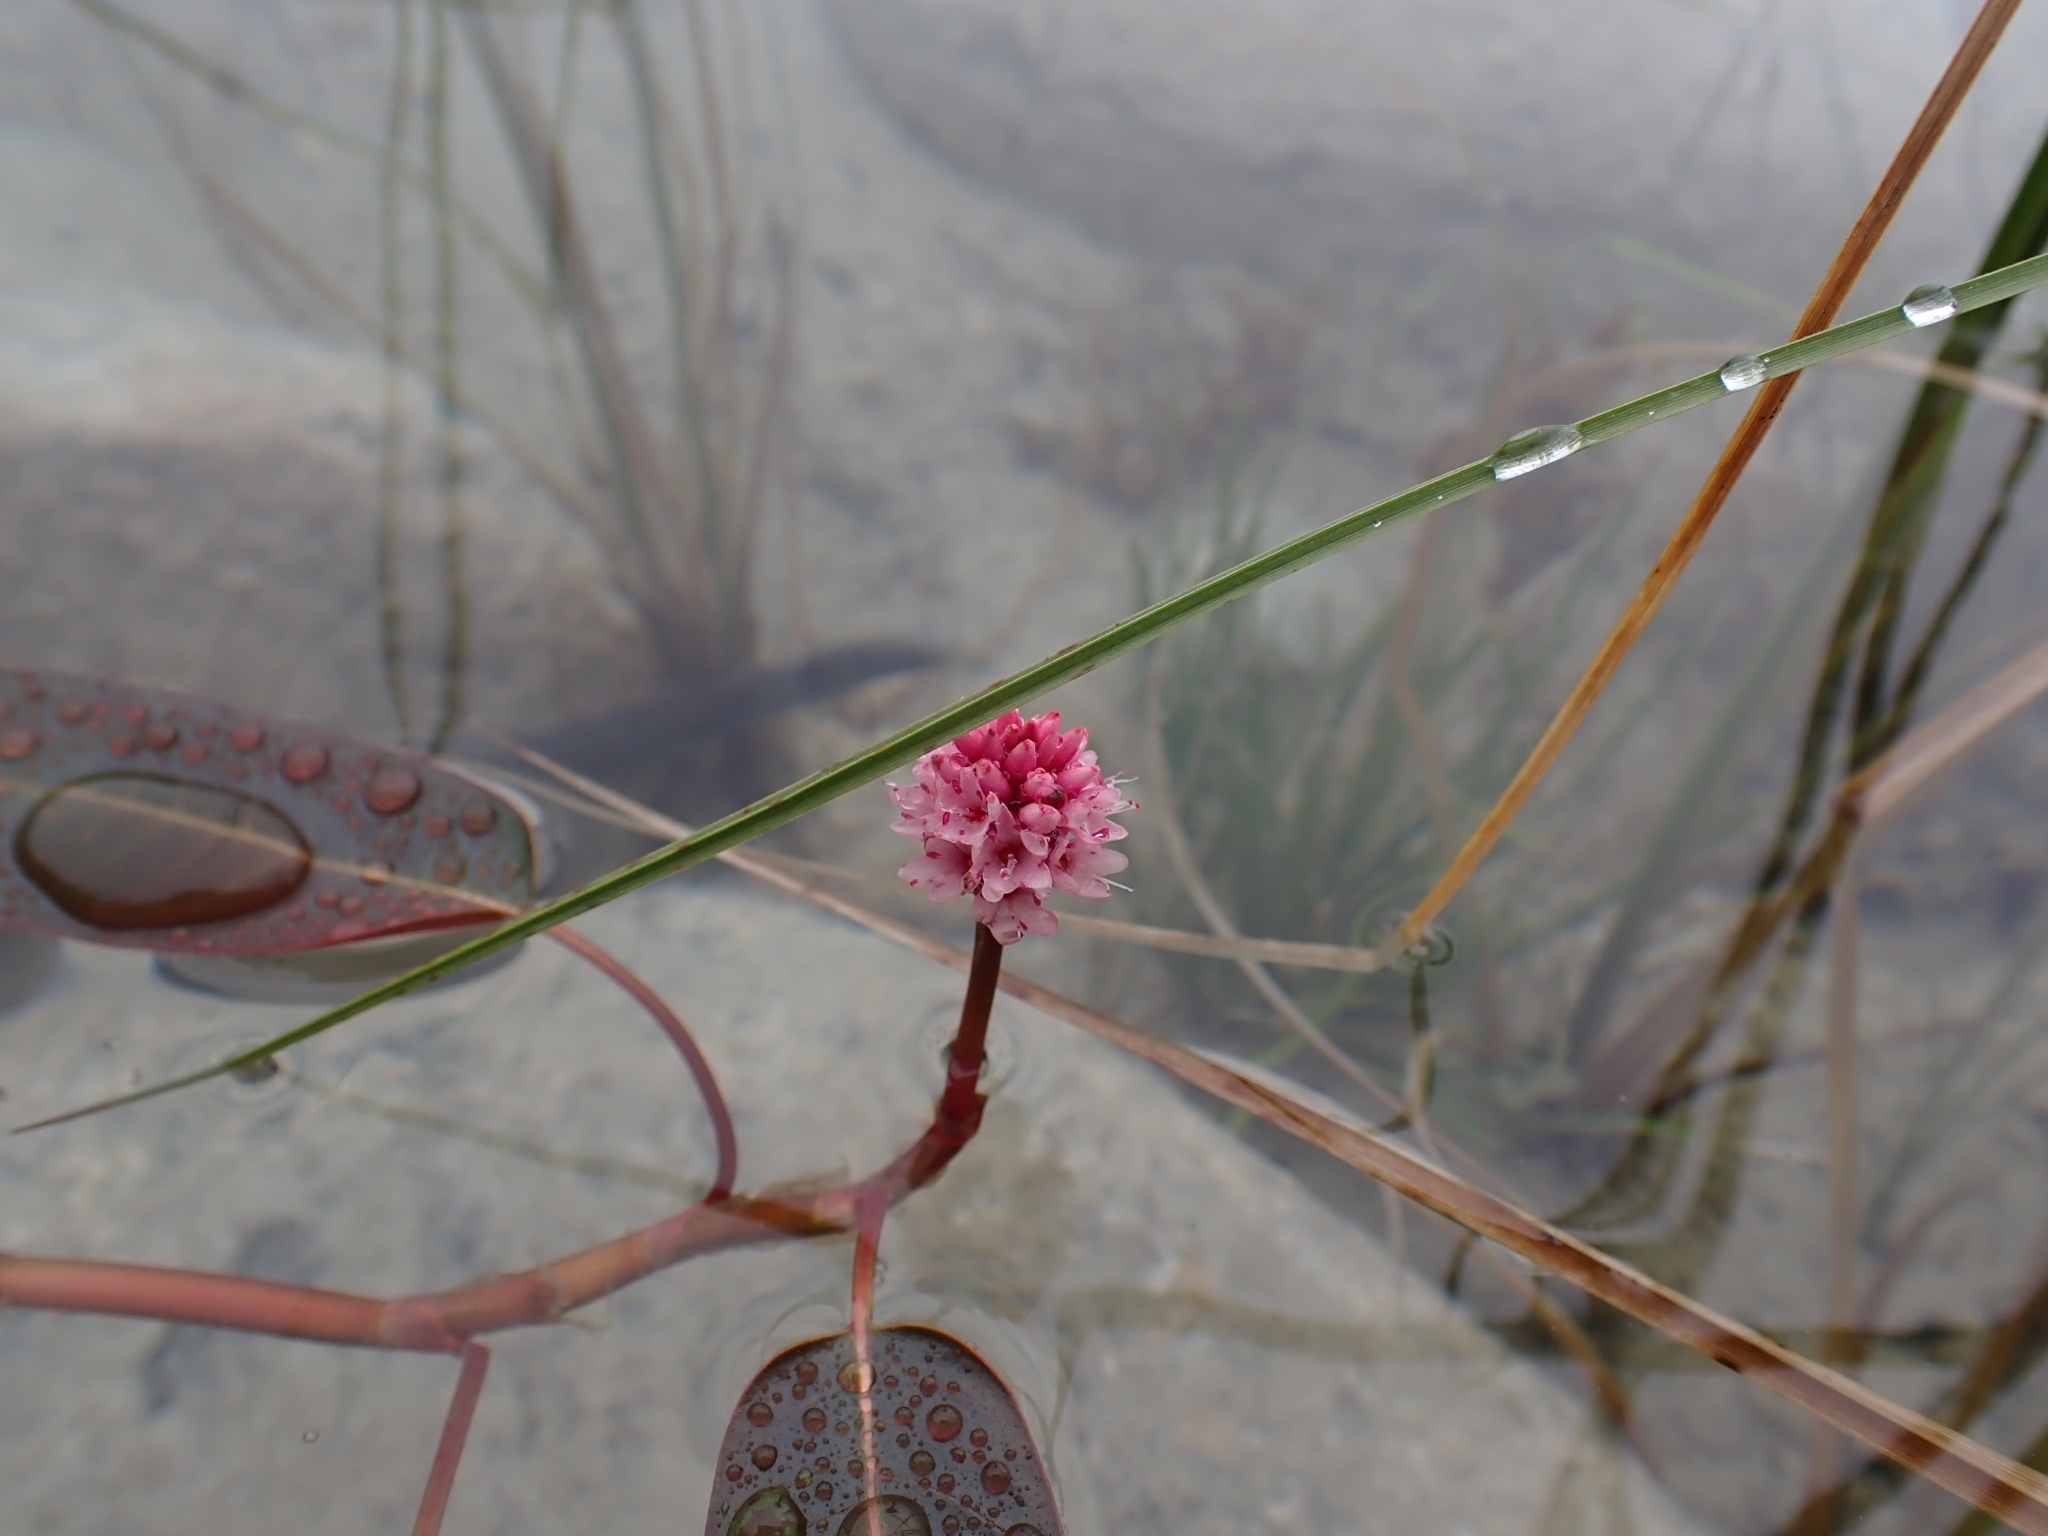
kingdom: Plantae
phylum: Tracheophyta
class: Magnoliopsida
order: Caryophyllales
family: Polygonaceae
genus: Persicaria
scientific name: Persicaria amphibia
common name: Amphibious bistort
